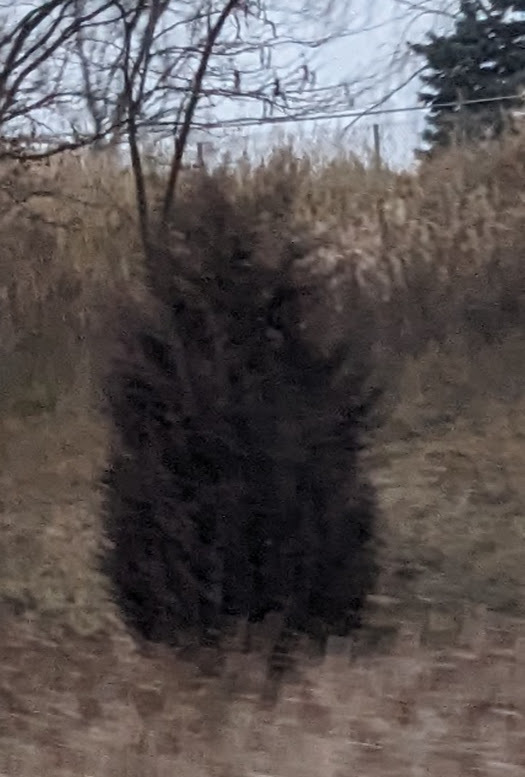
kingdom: Plantae
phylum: Tracheophyta
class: Pinopsida
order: Pinales
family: Cupressaceae
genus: Juniperus
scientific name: Juniperus virginiana
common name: Red juniper
